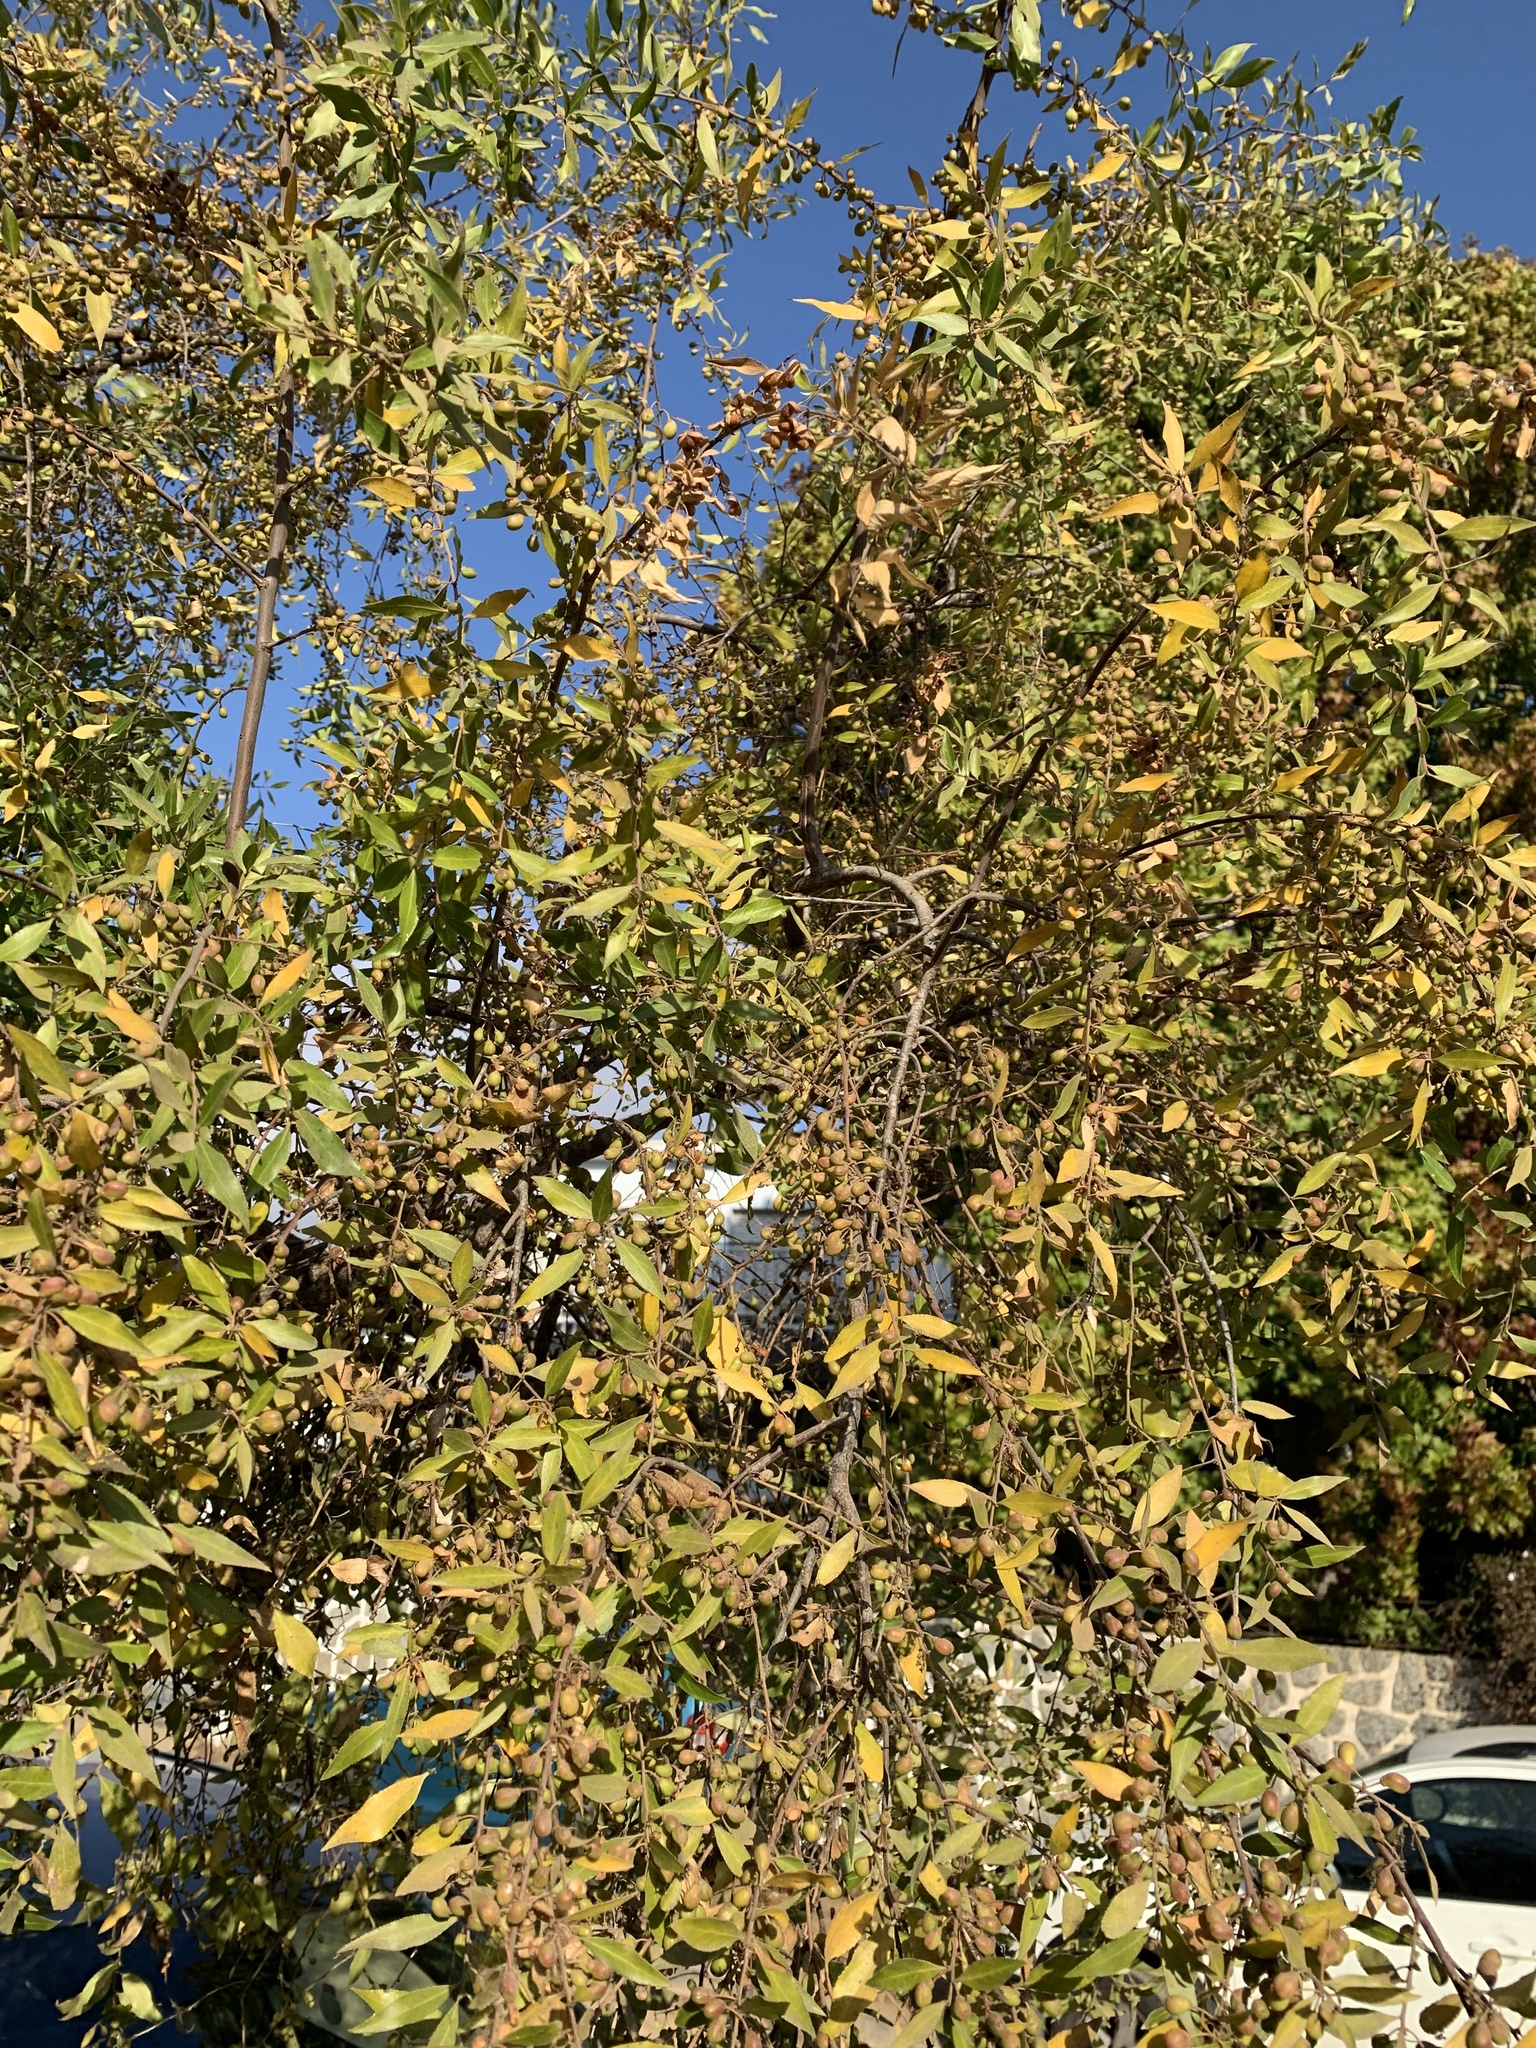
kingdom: Plantae
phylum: Tracheophyta
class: Magnoliopsida
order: Celastrales
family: Celastraceae
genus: Maytenus
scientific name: Maytenus boaria
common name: Mayten
